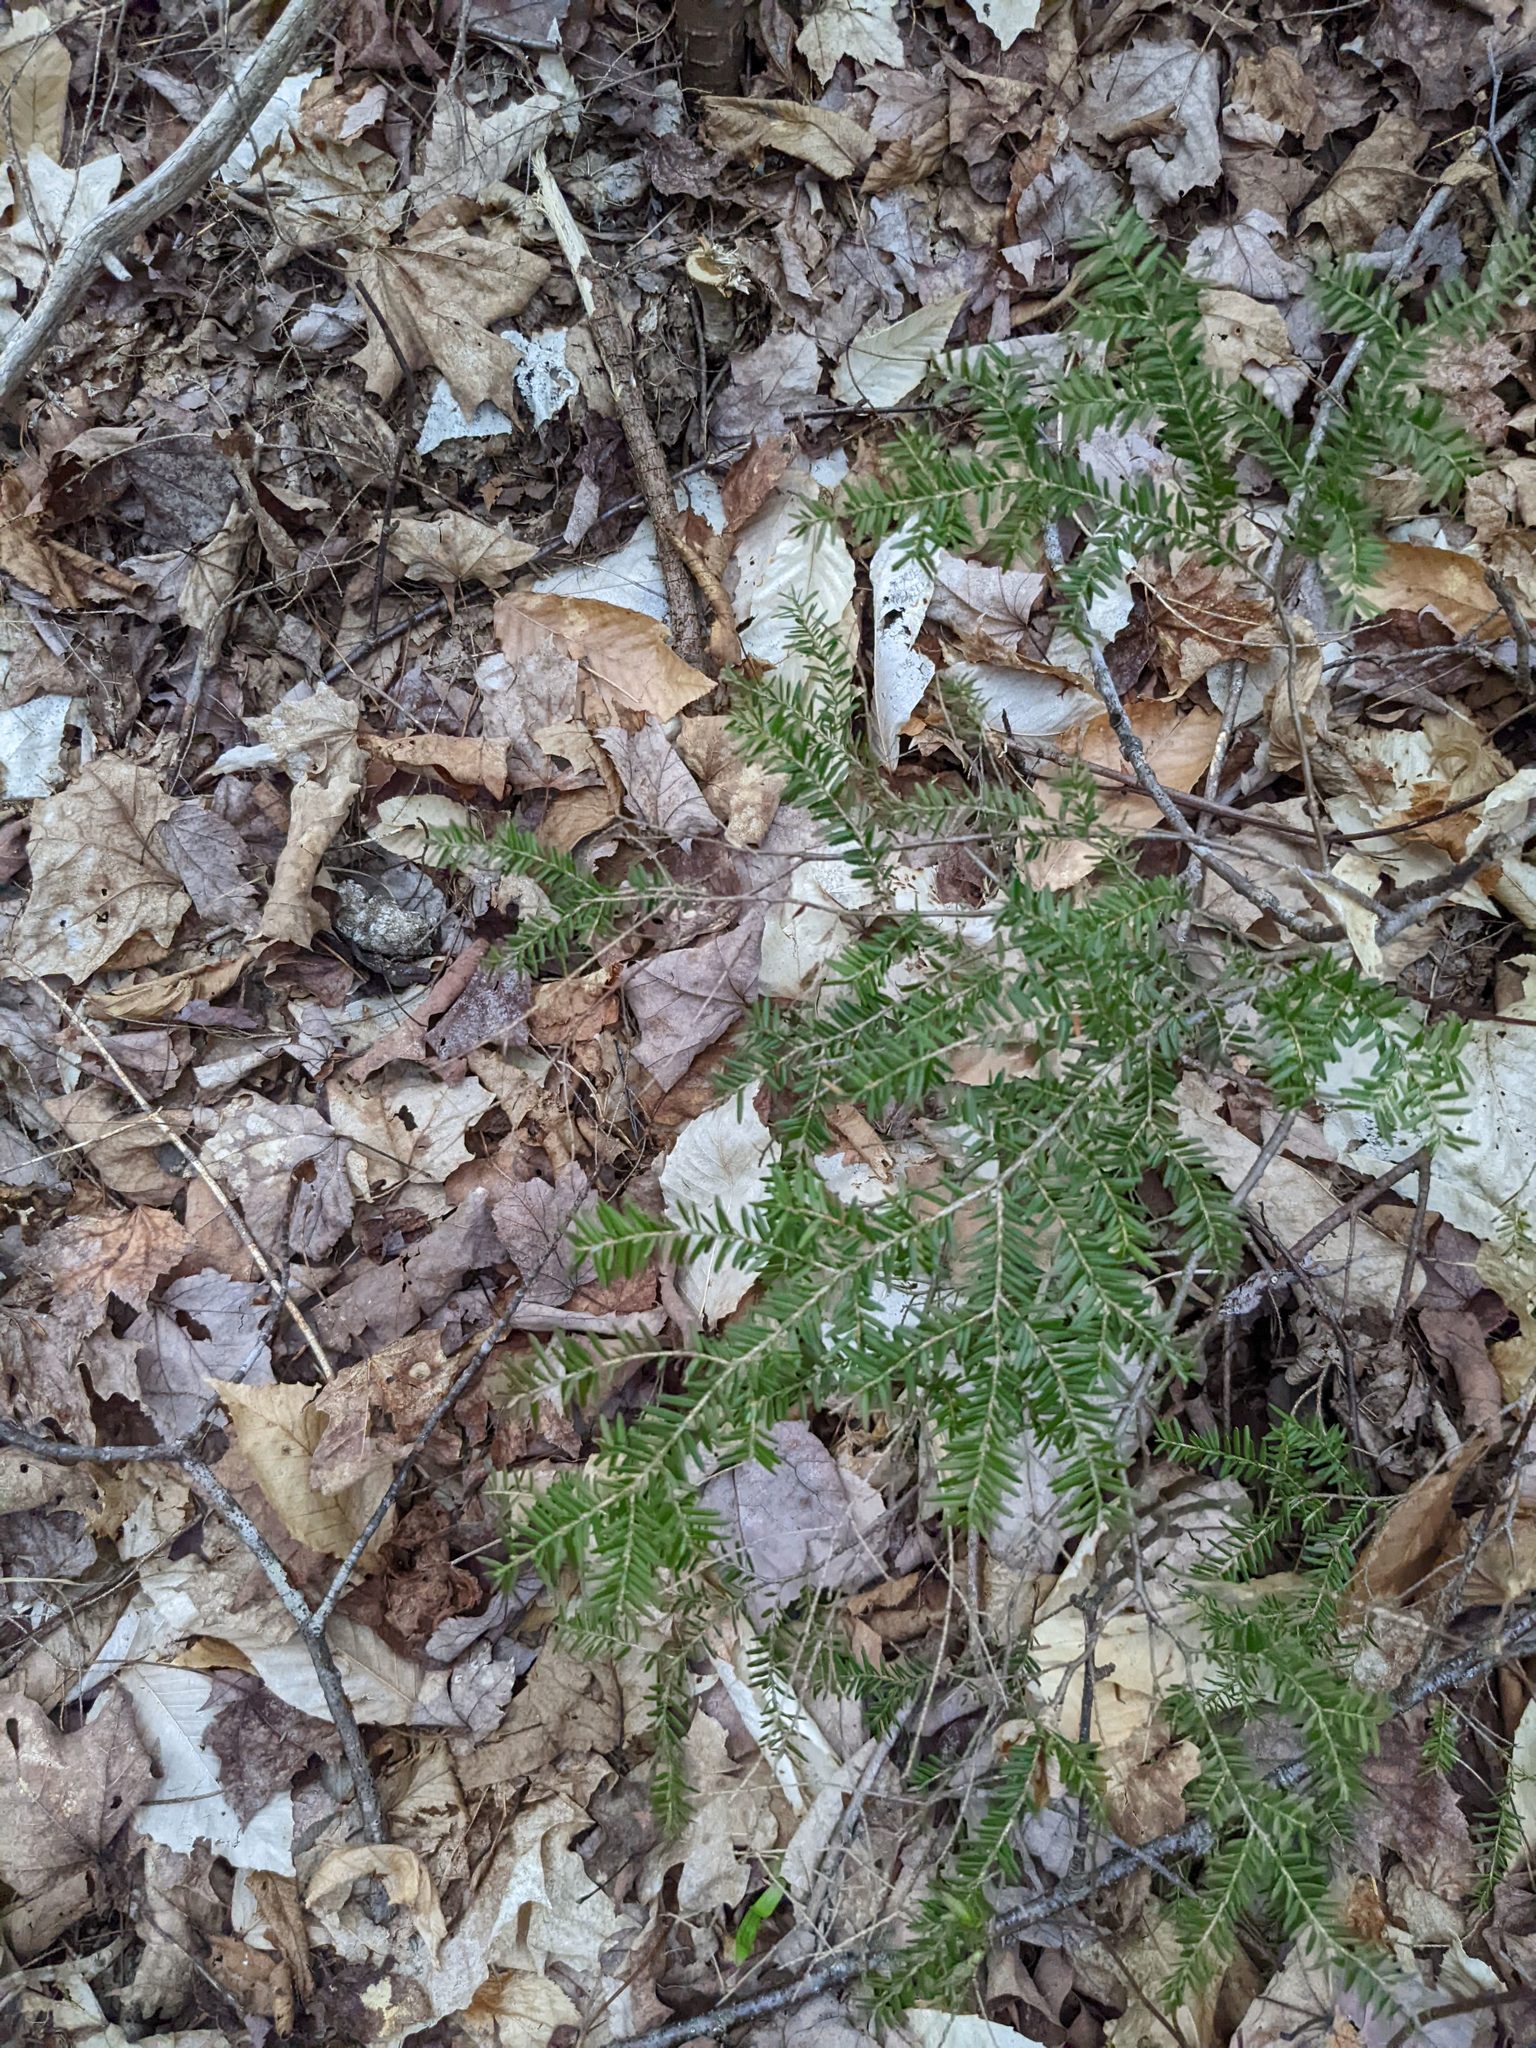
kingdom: Plantae
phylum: Tracheophyta
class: Pinopsida
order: Pinales
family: Pinaceae
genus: Tsuga
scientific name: Tsuga canadensis
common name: Eastern hemlock
